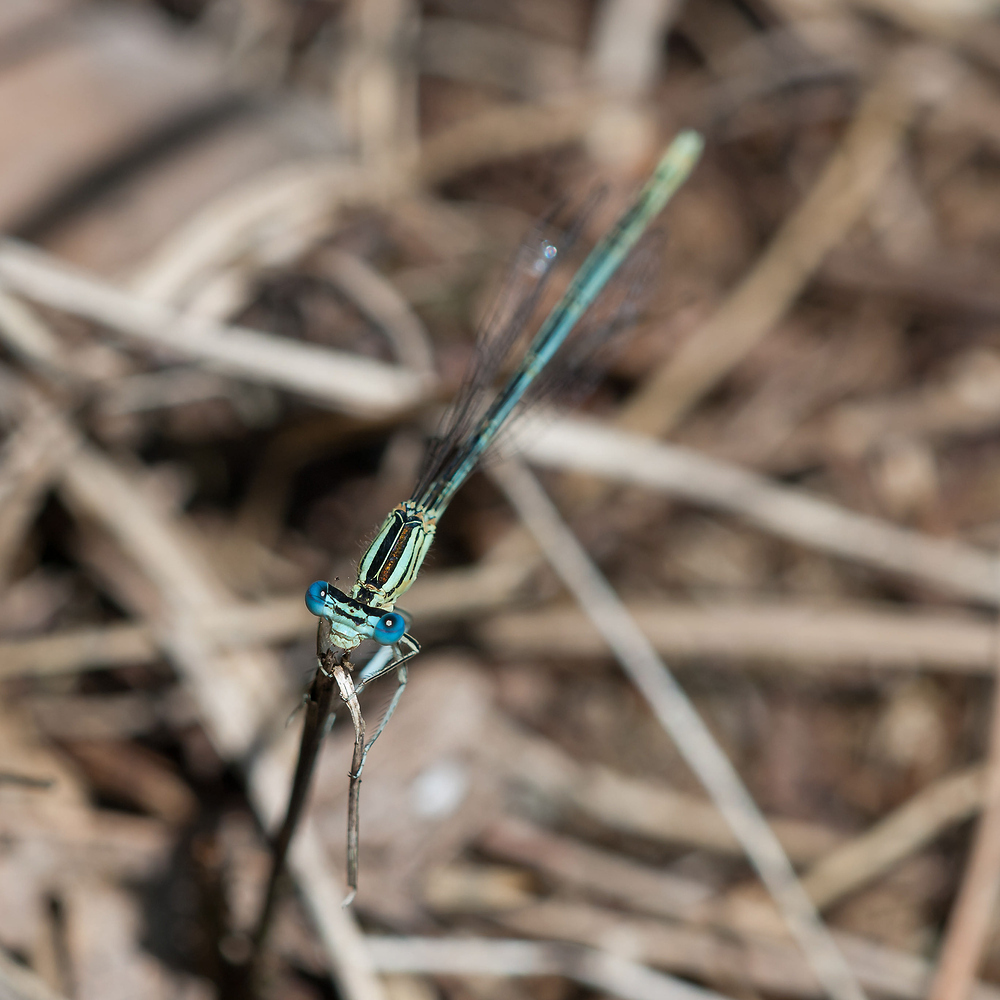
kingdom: Animalia
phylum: Arthropoda
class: Insecta
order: Odonata
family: Platycnemididae
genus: Platycnemis
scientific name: Platycnemis pennipes
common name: White-legged damselfly
